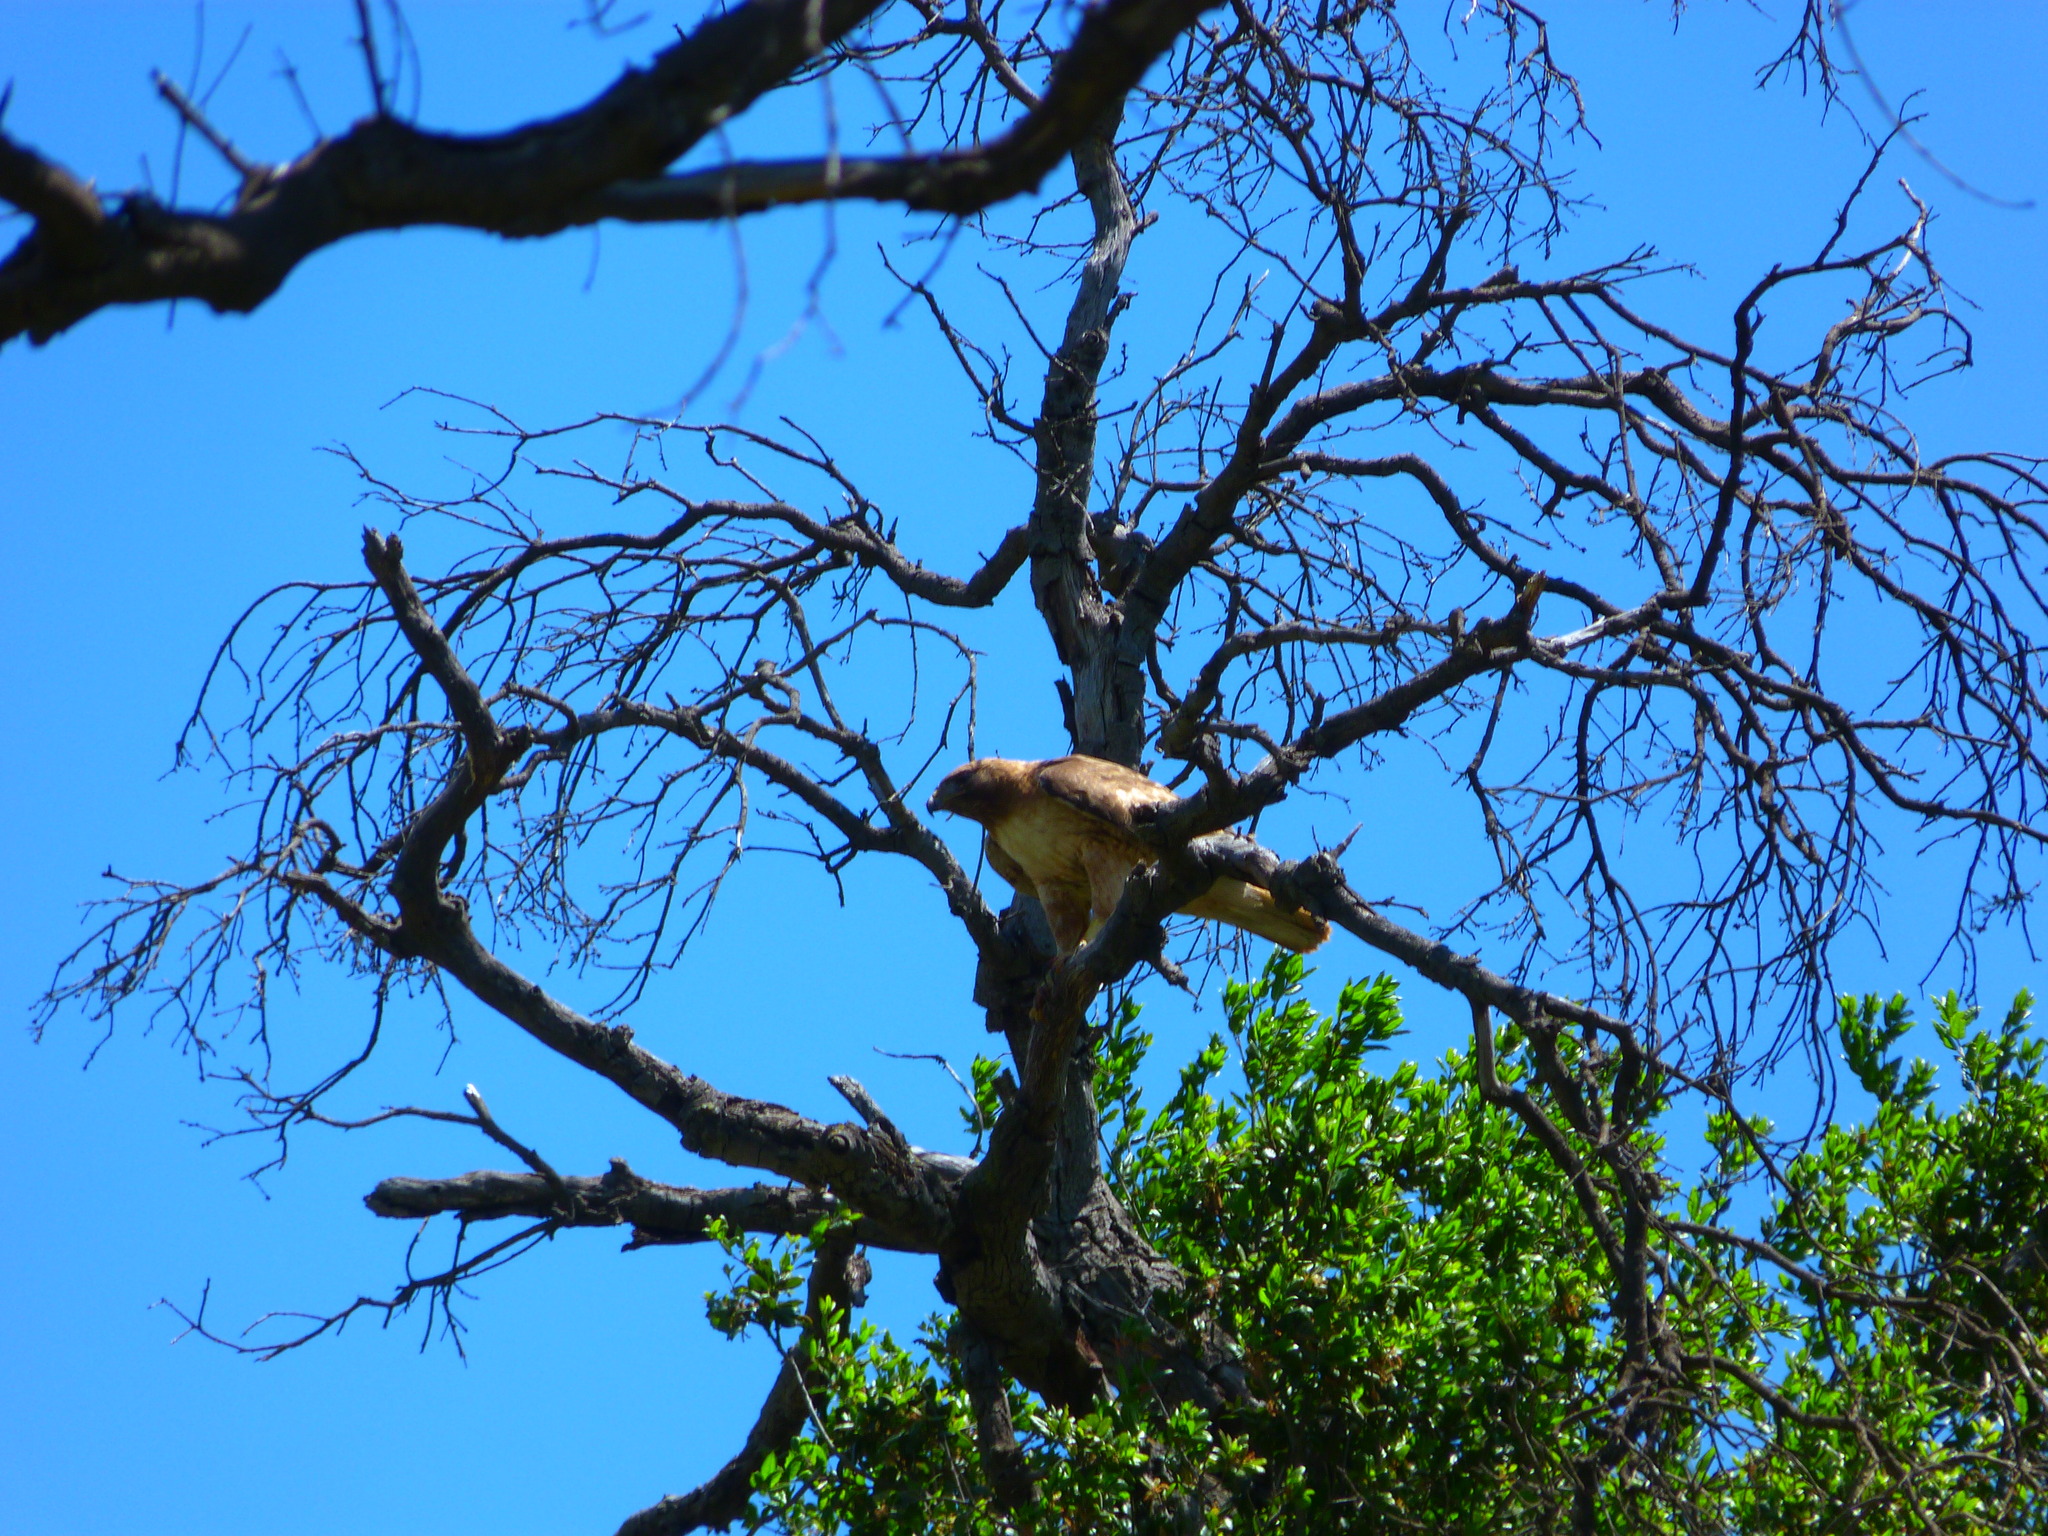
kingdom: Animalia
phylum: Chordata
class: Aves
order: Accipitriformes
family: Accipitridae
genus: Buteo
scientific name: Buteo jamaicensis
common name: Red-tailed hawk
